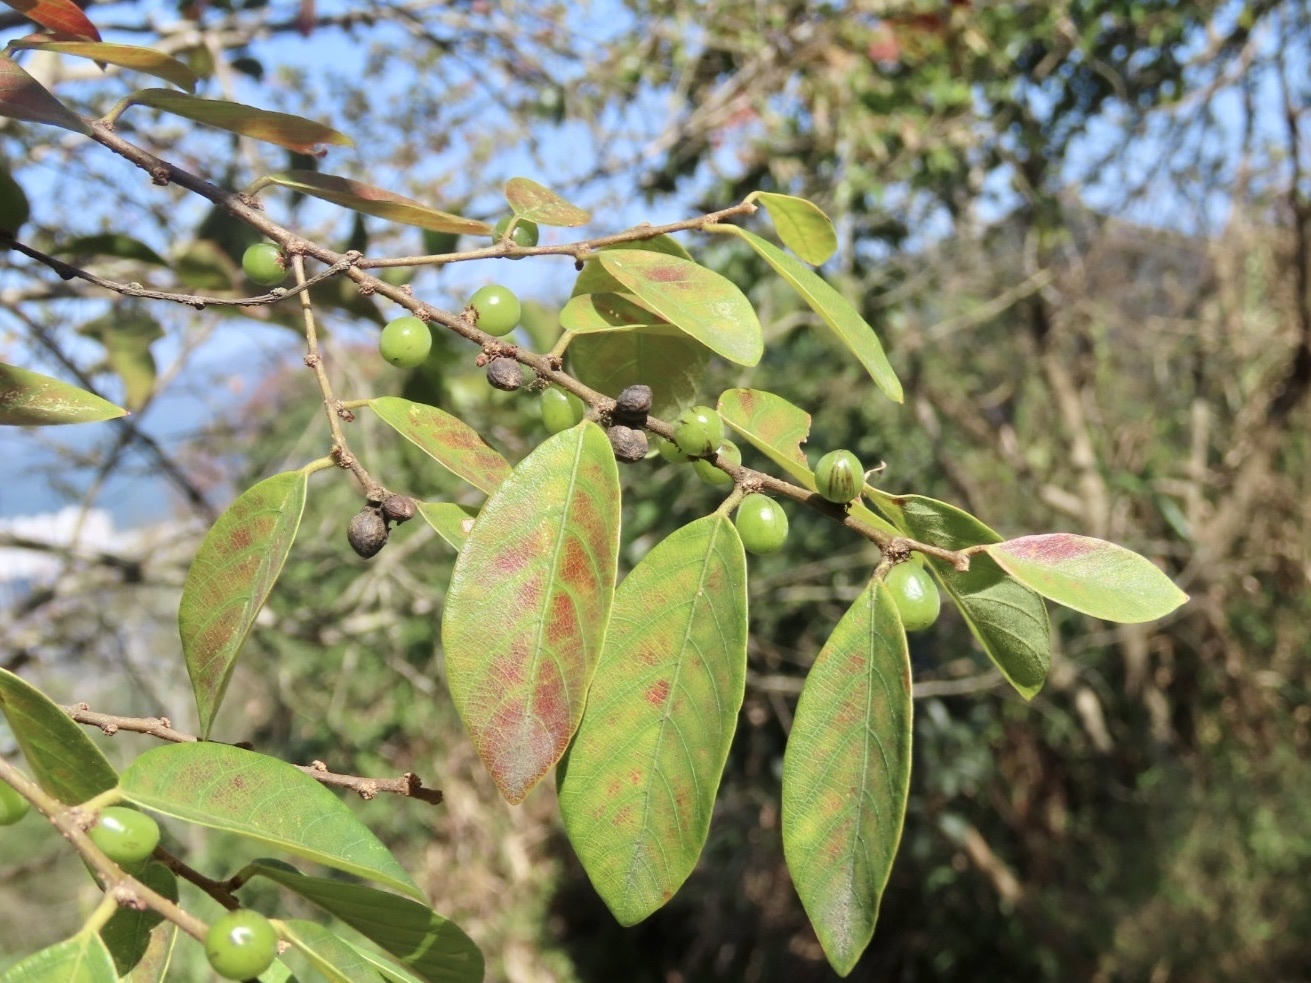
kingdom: Plantae
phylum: Tracheophyta
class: Magnoliopsida
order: Malpighiales
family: Phyllanthaceae
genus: Bridelia
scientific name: Bridelia tomentosa
